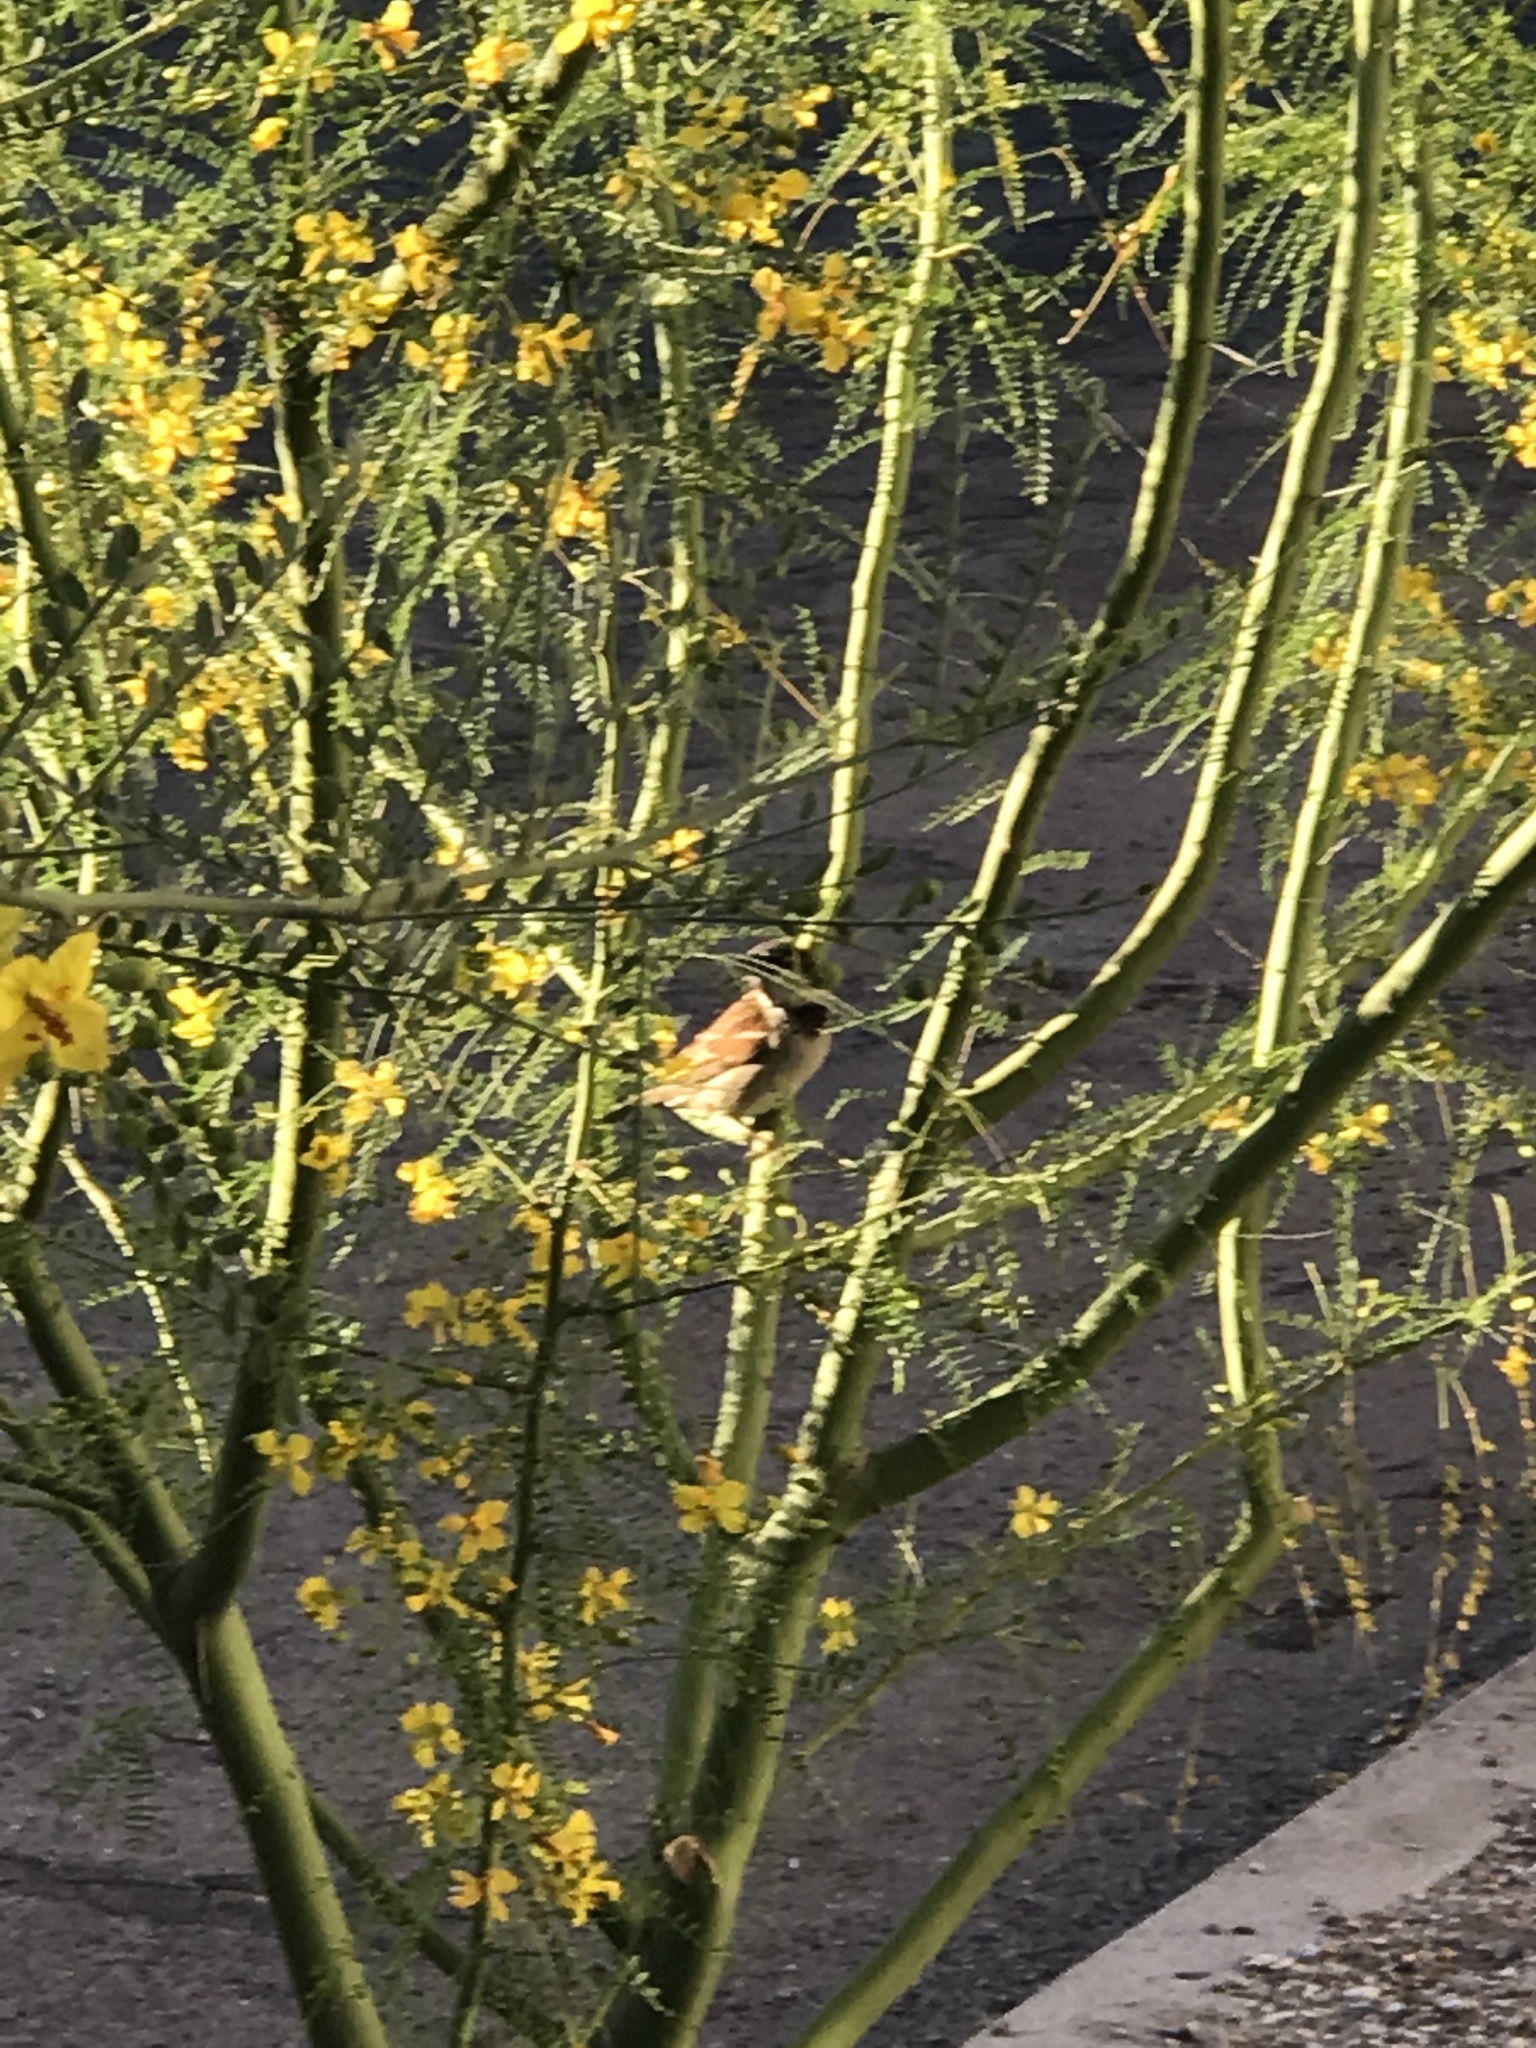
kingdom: Animalia
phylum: Chordata
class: Aves
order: Passeriformes
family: Passeridae
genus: Passer
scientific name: Passer domesticus
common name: House sparrow
